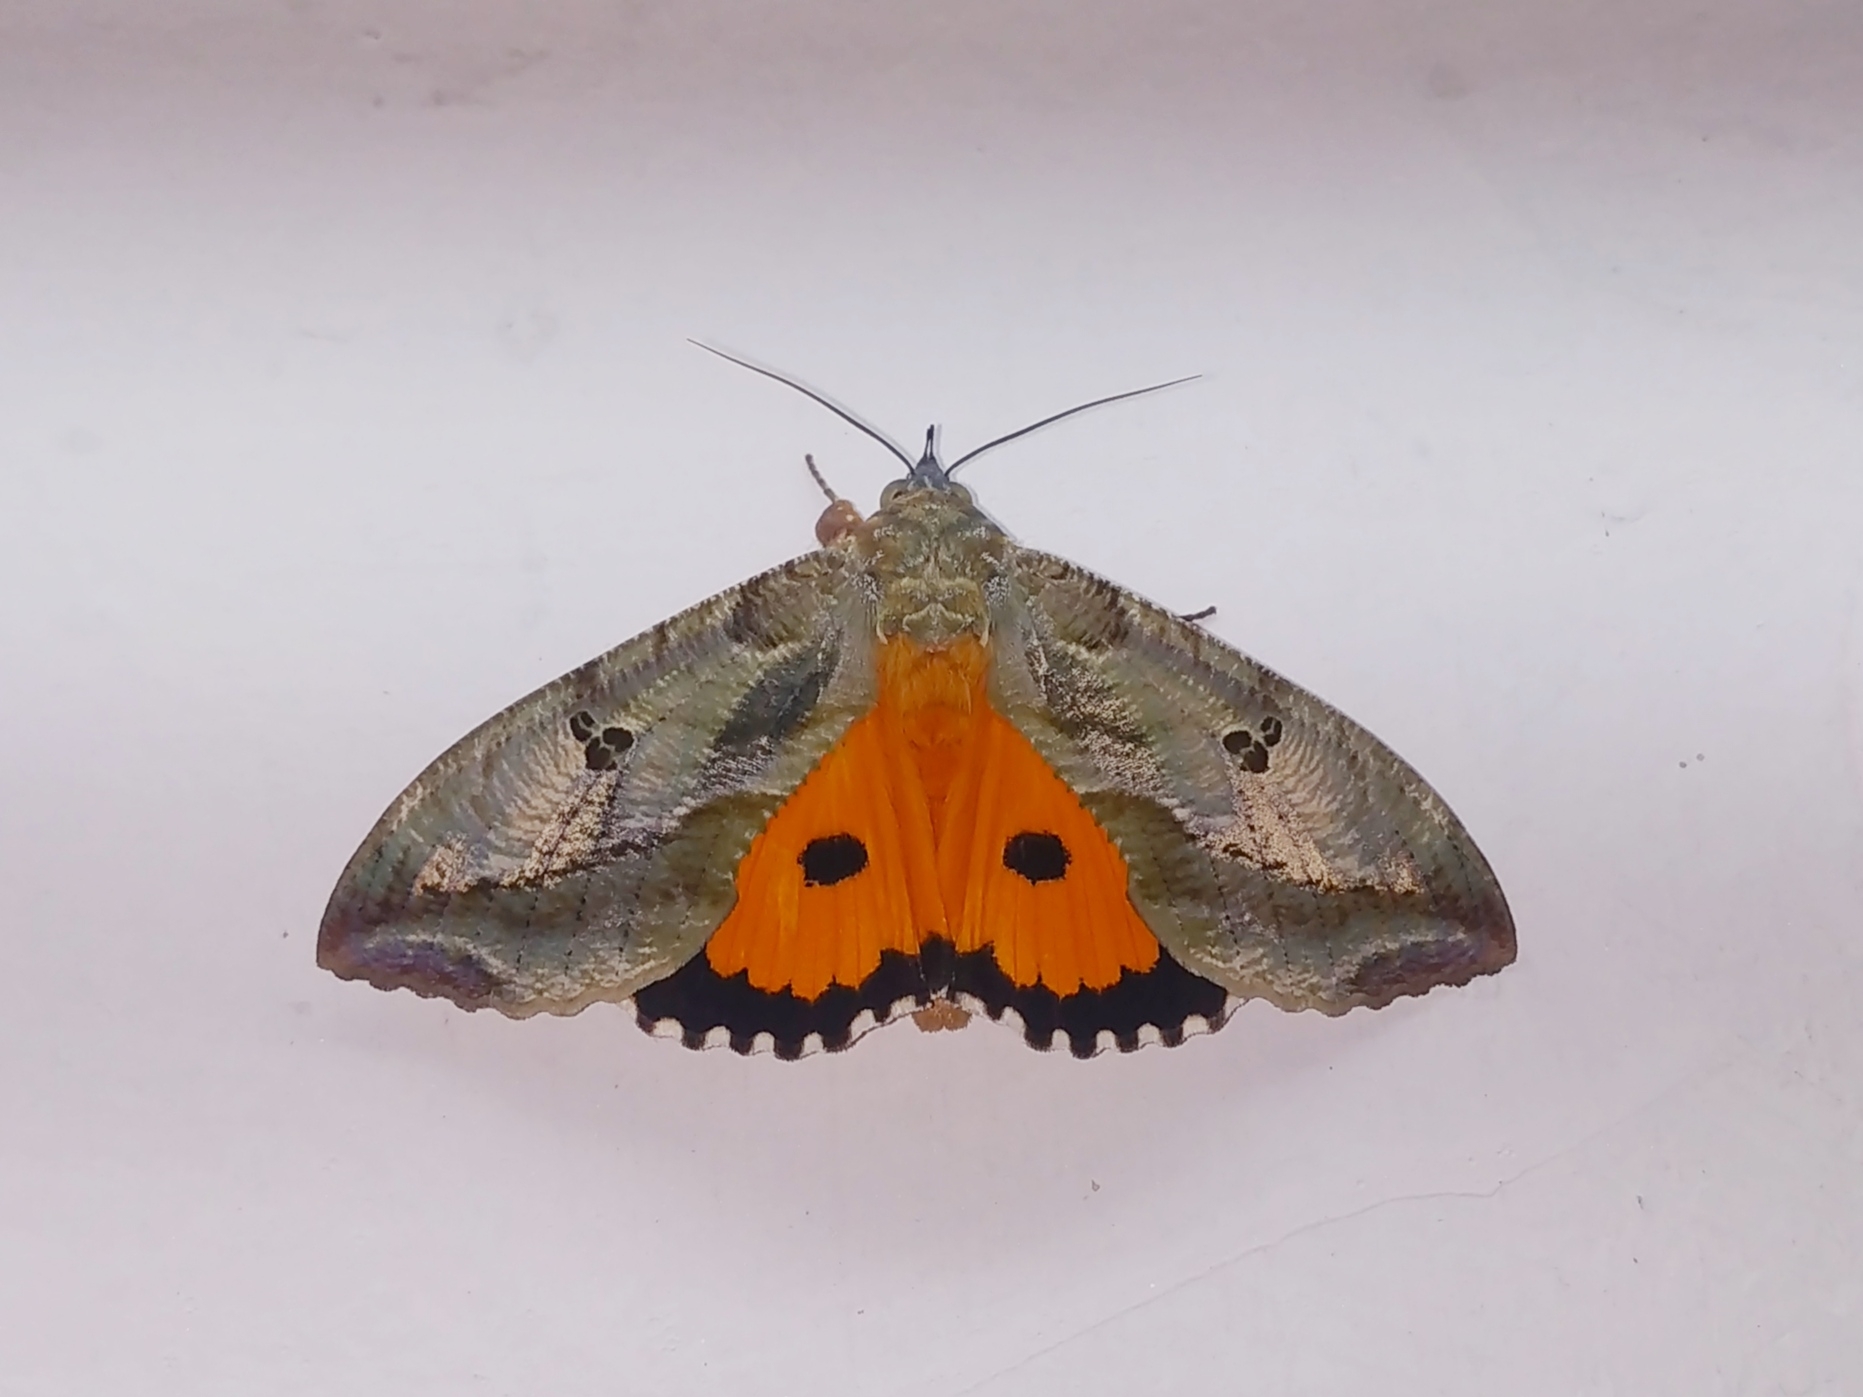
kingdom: Animalia
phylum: Arthropoda
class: Insecta
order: Lepidoptera
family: Erebidae
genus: Eudocima
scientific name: Eudocima materna
